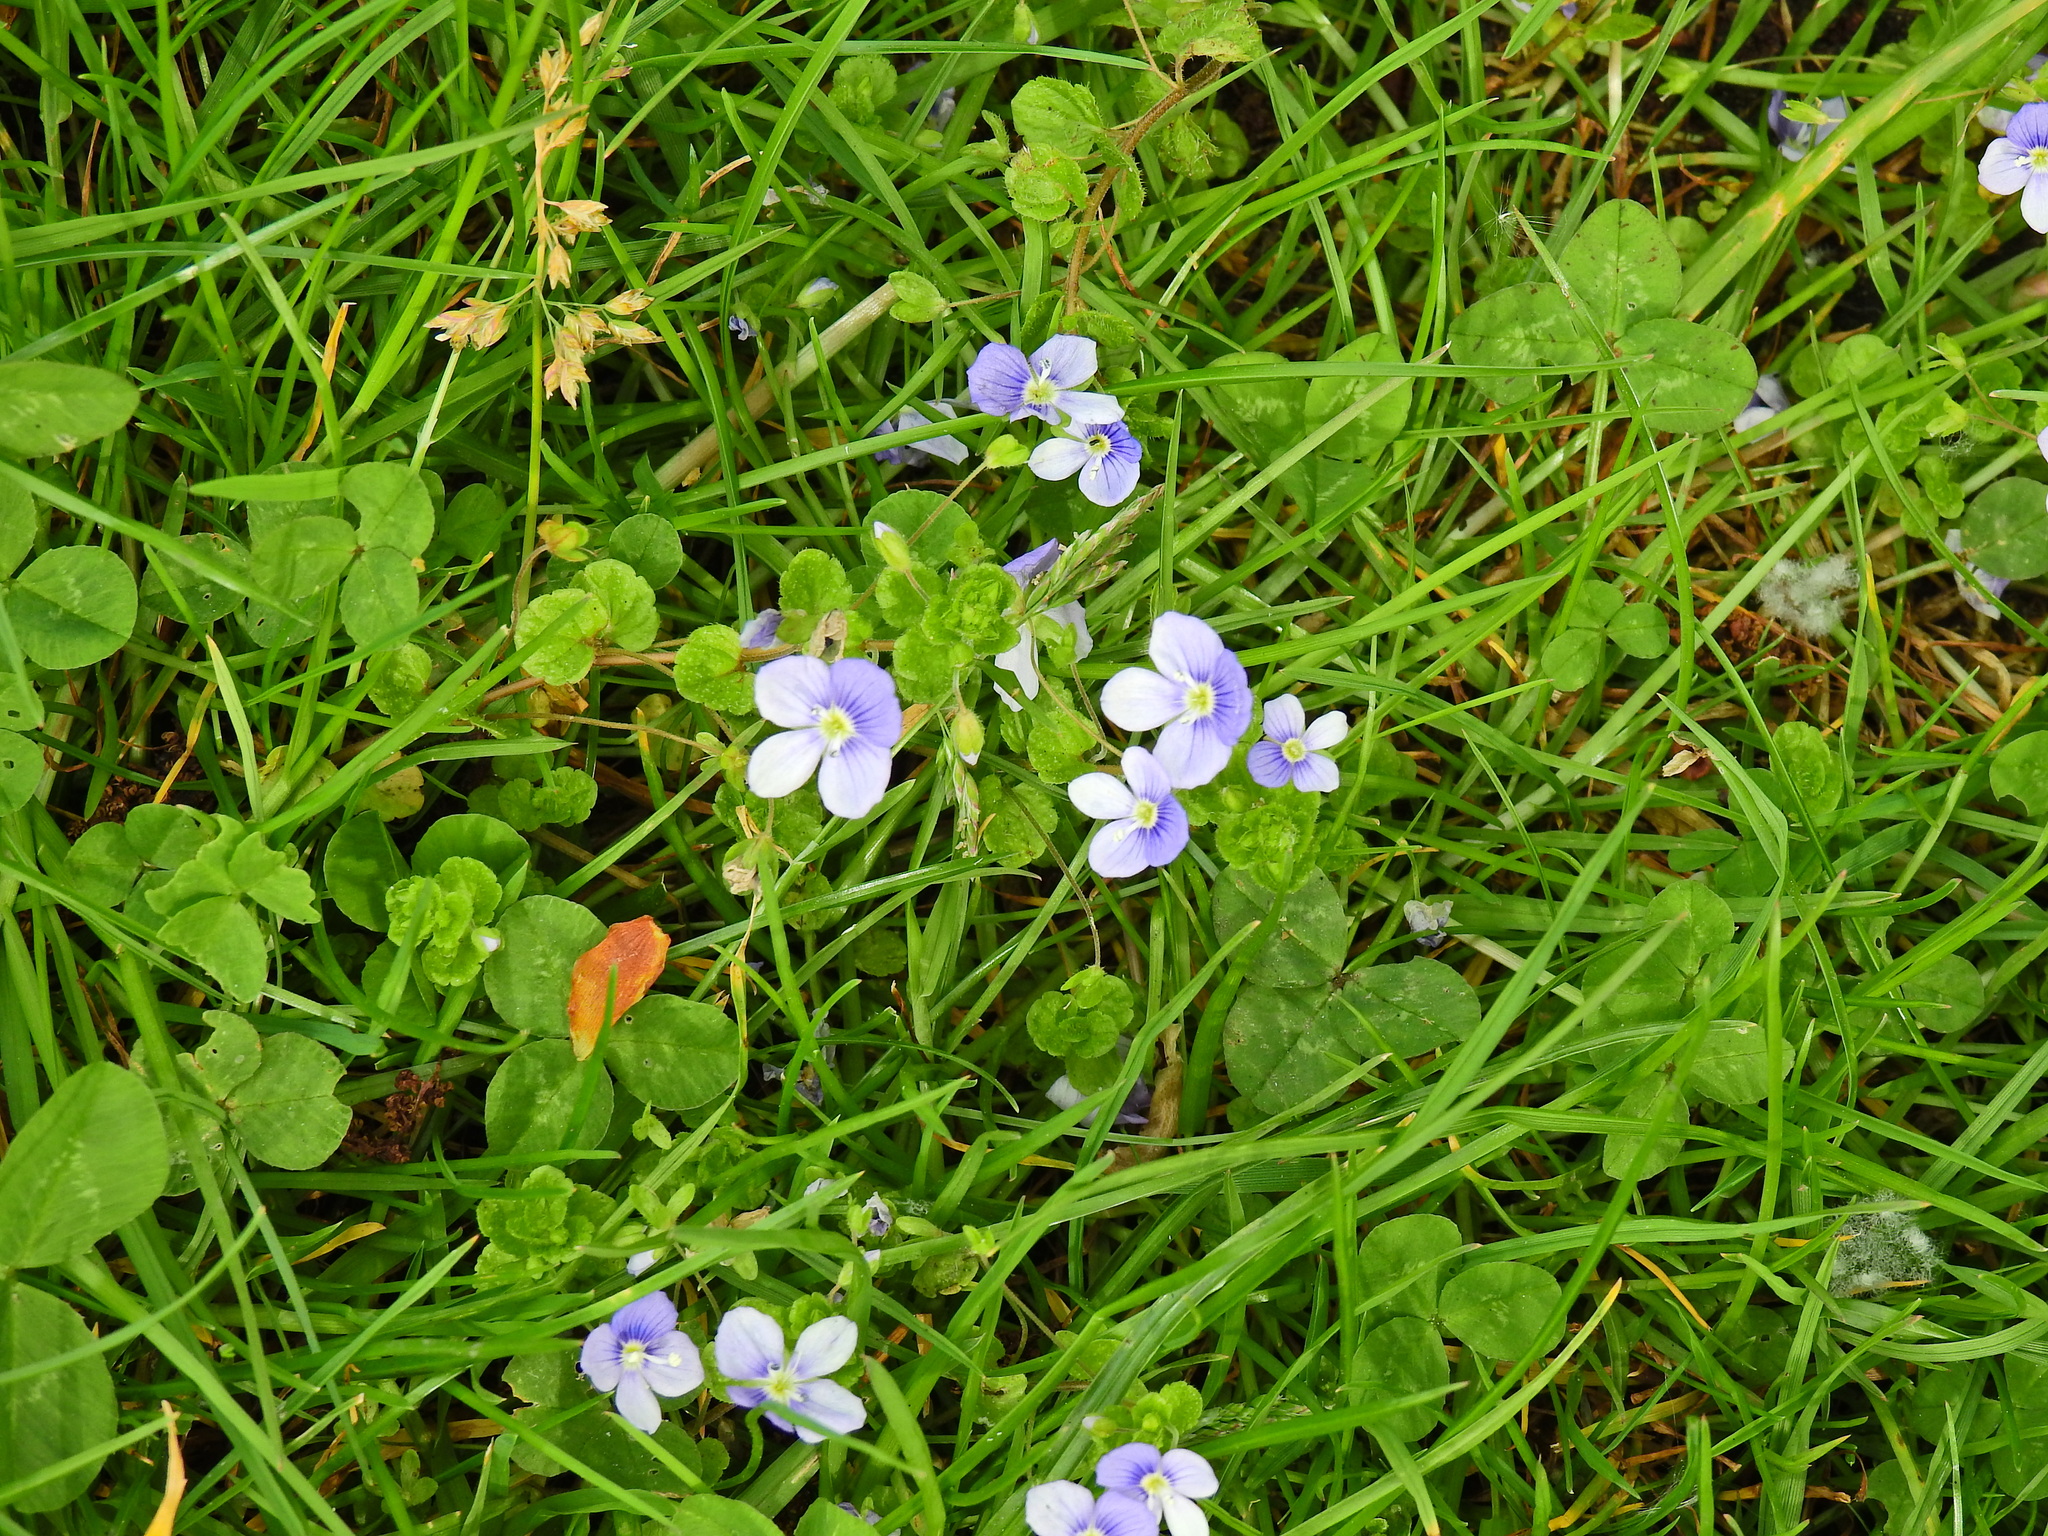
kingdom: Plantae
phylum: Tracheophyta
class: Magnoliopsida
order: Lamiales
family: Plantaginaceae
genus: Veronica
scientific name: Veronica filiformis
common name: Slender speedwell
